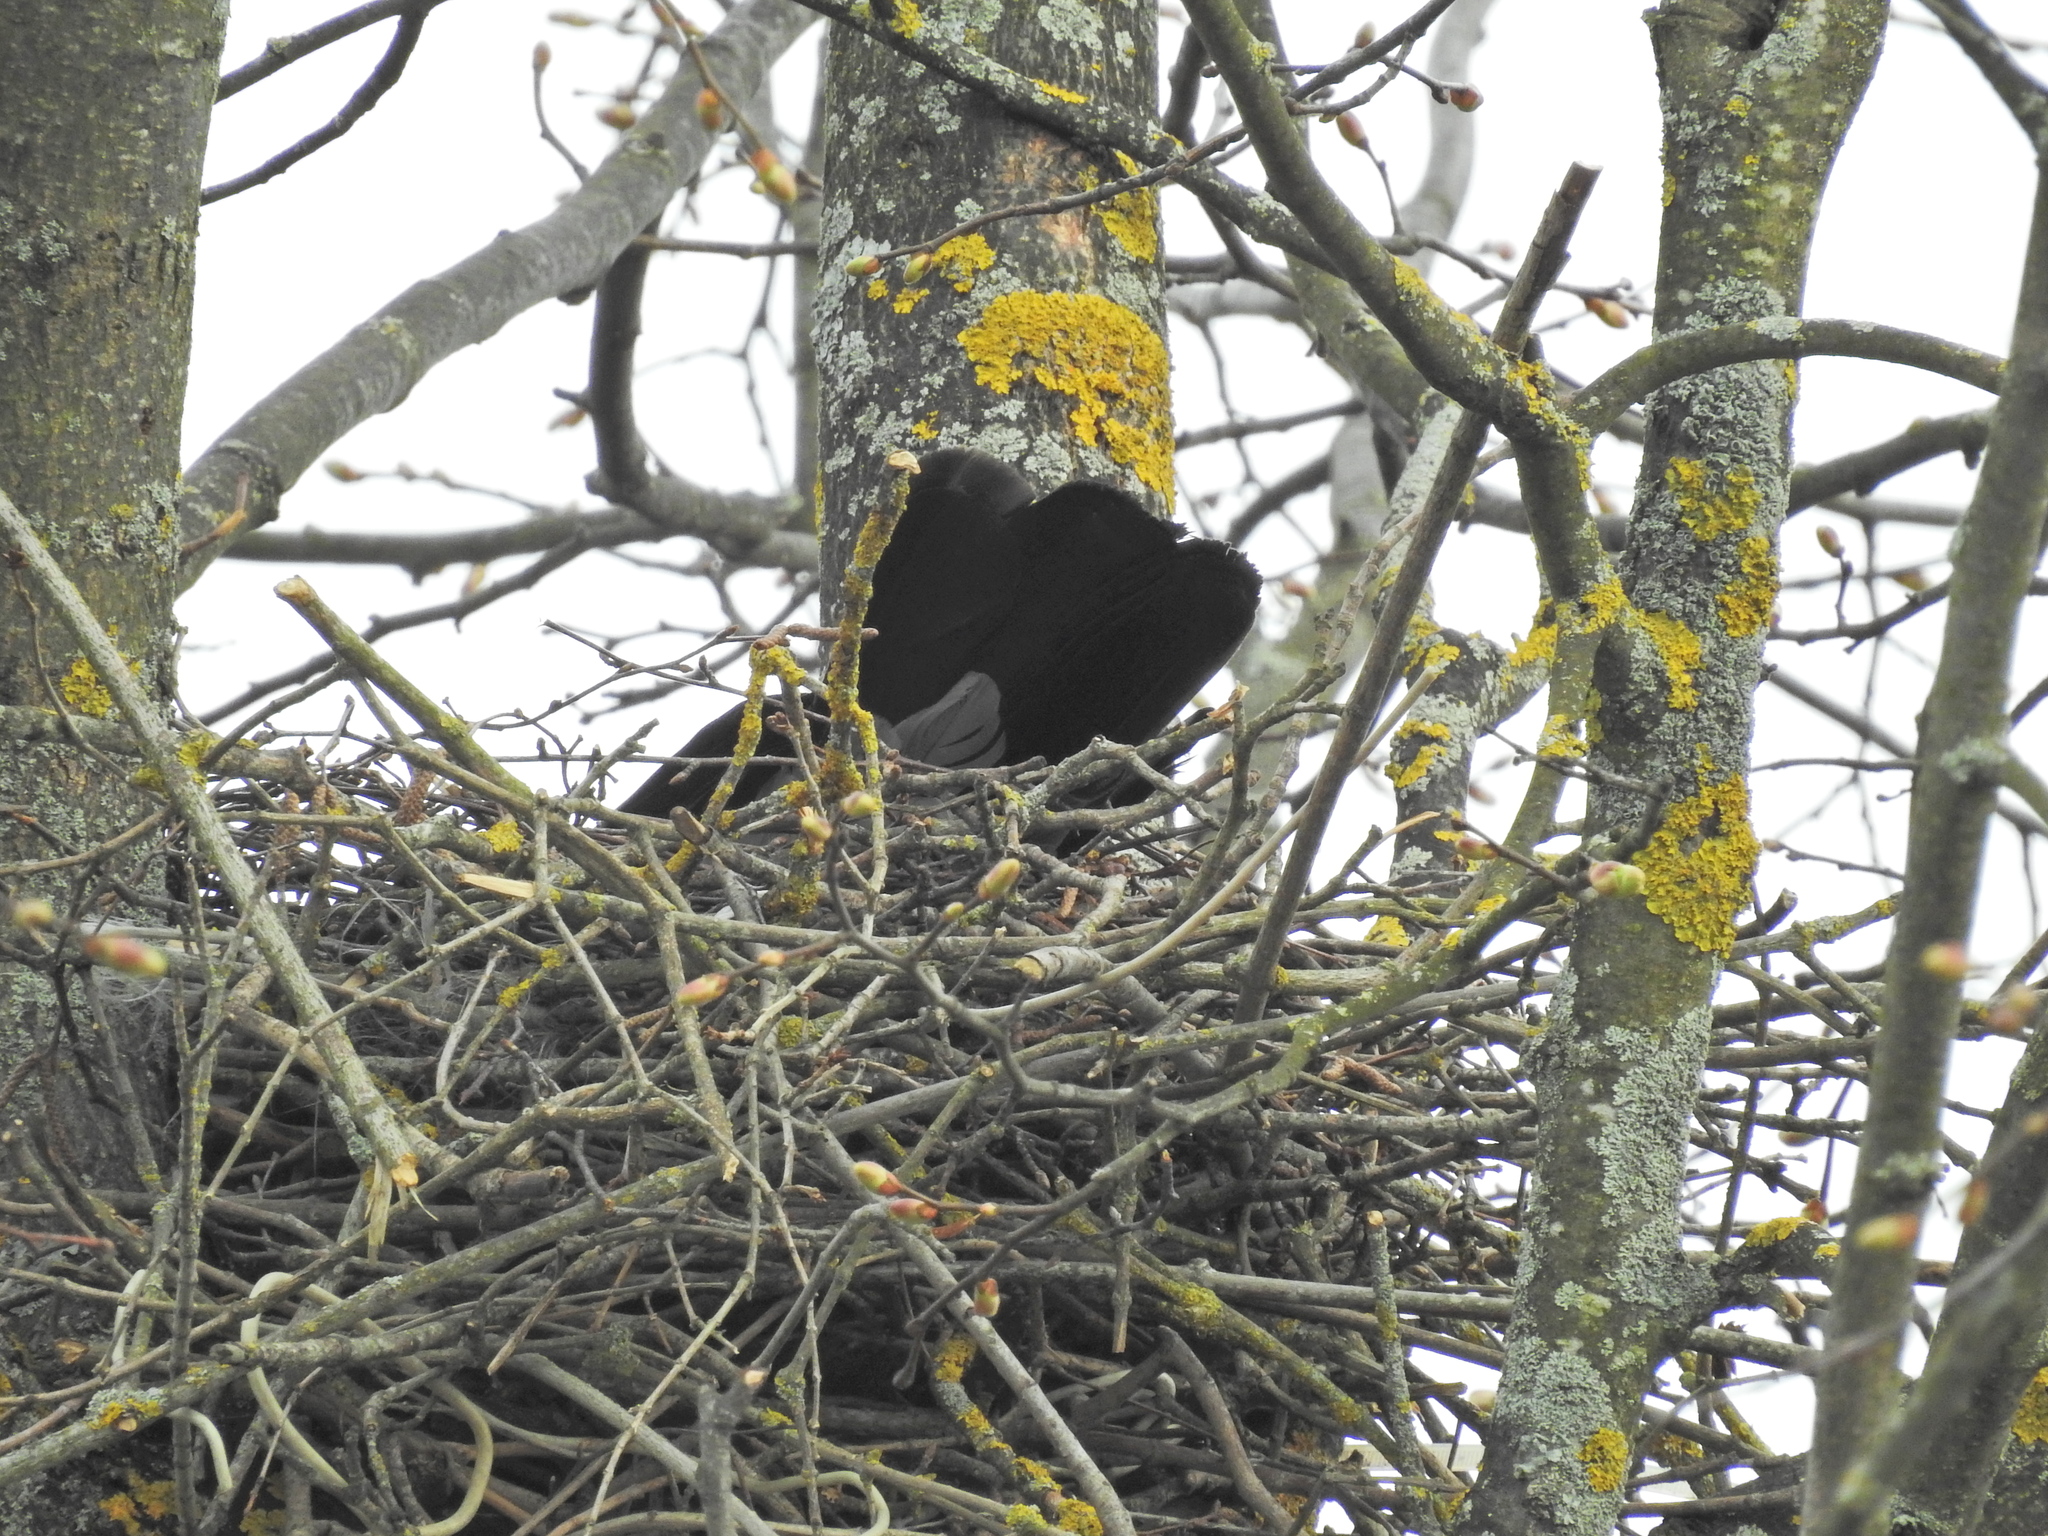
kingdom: Animalia
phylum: Chordata
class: Aves
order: Passeriformes
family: Corvidae
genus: Corvus
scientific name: Corvus cornix
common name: Hooded crow
